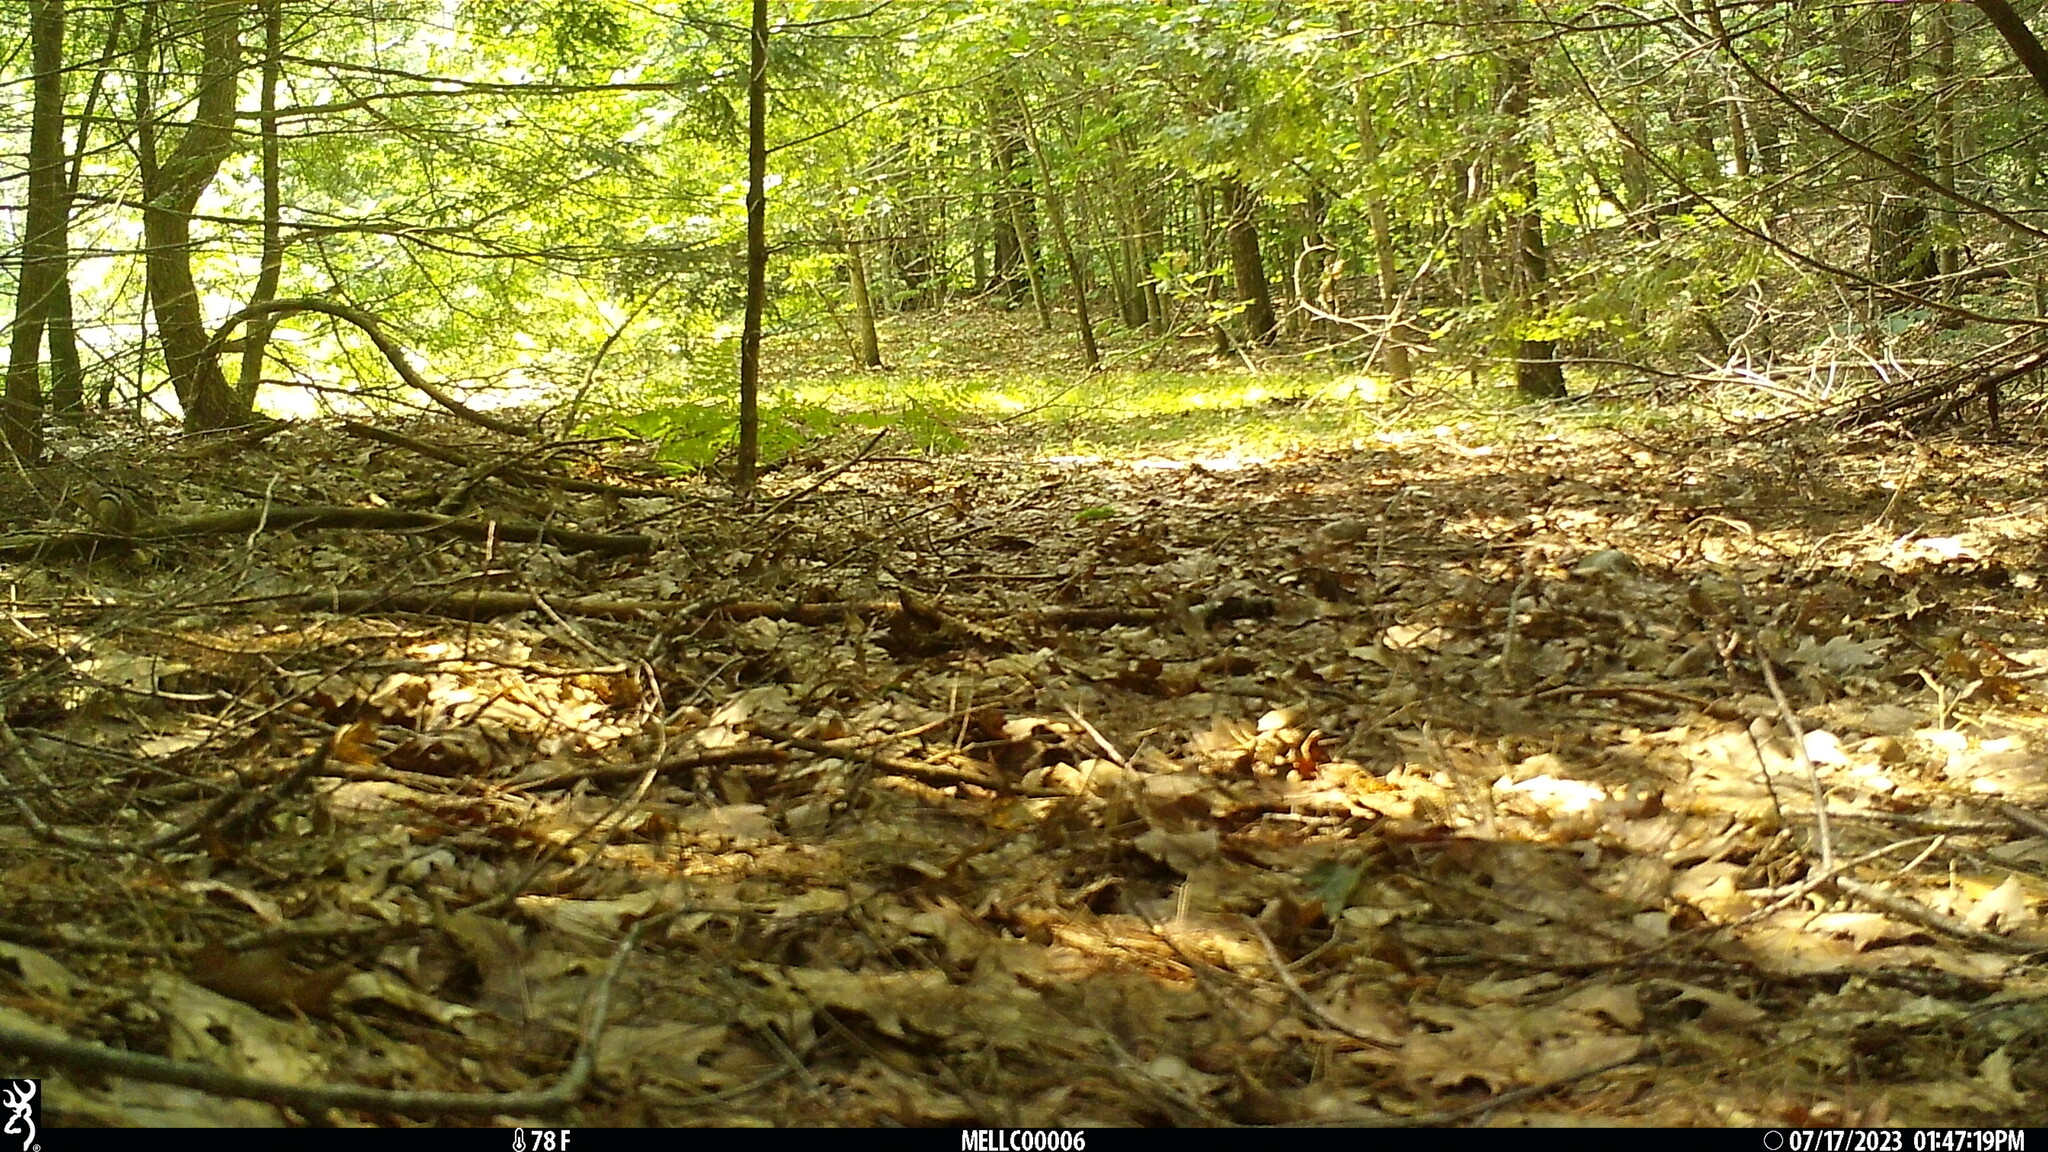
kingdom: Animalia
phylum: Chordata
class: Mammalia
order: Rodentia
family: Sciuridae
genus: Tamias
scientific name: Tamias striatus
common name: Eastern chipmunk
